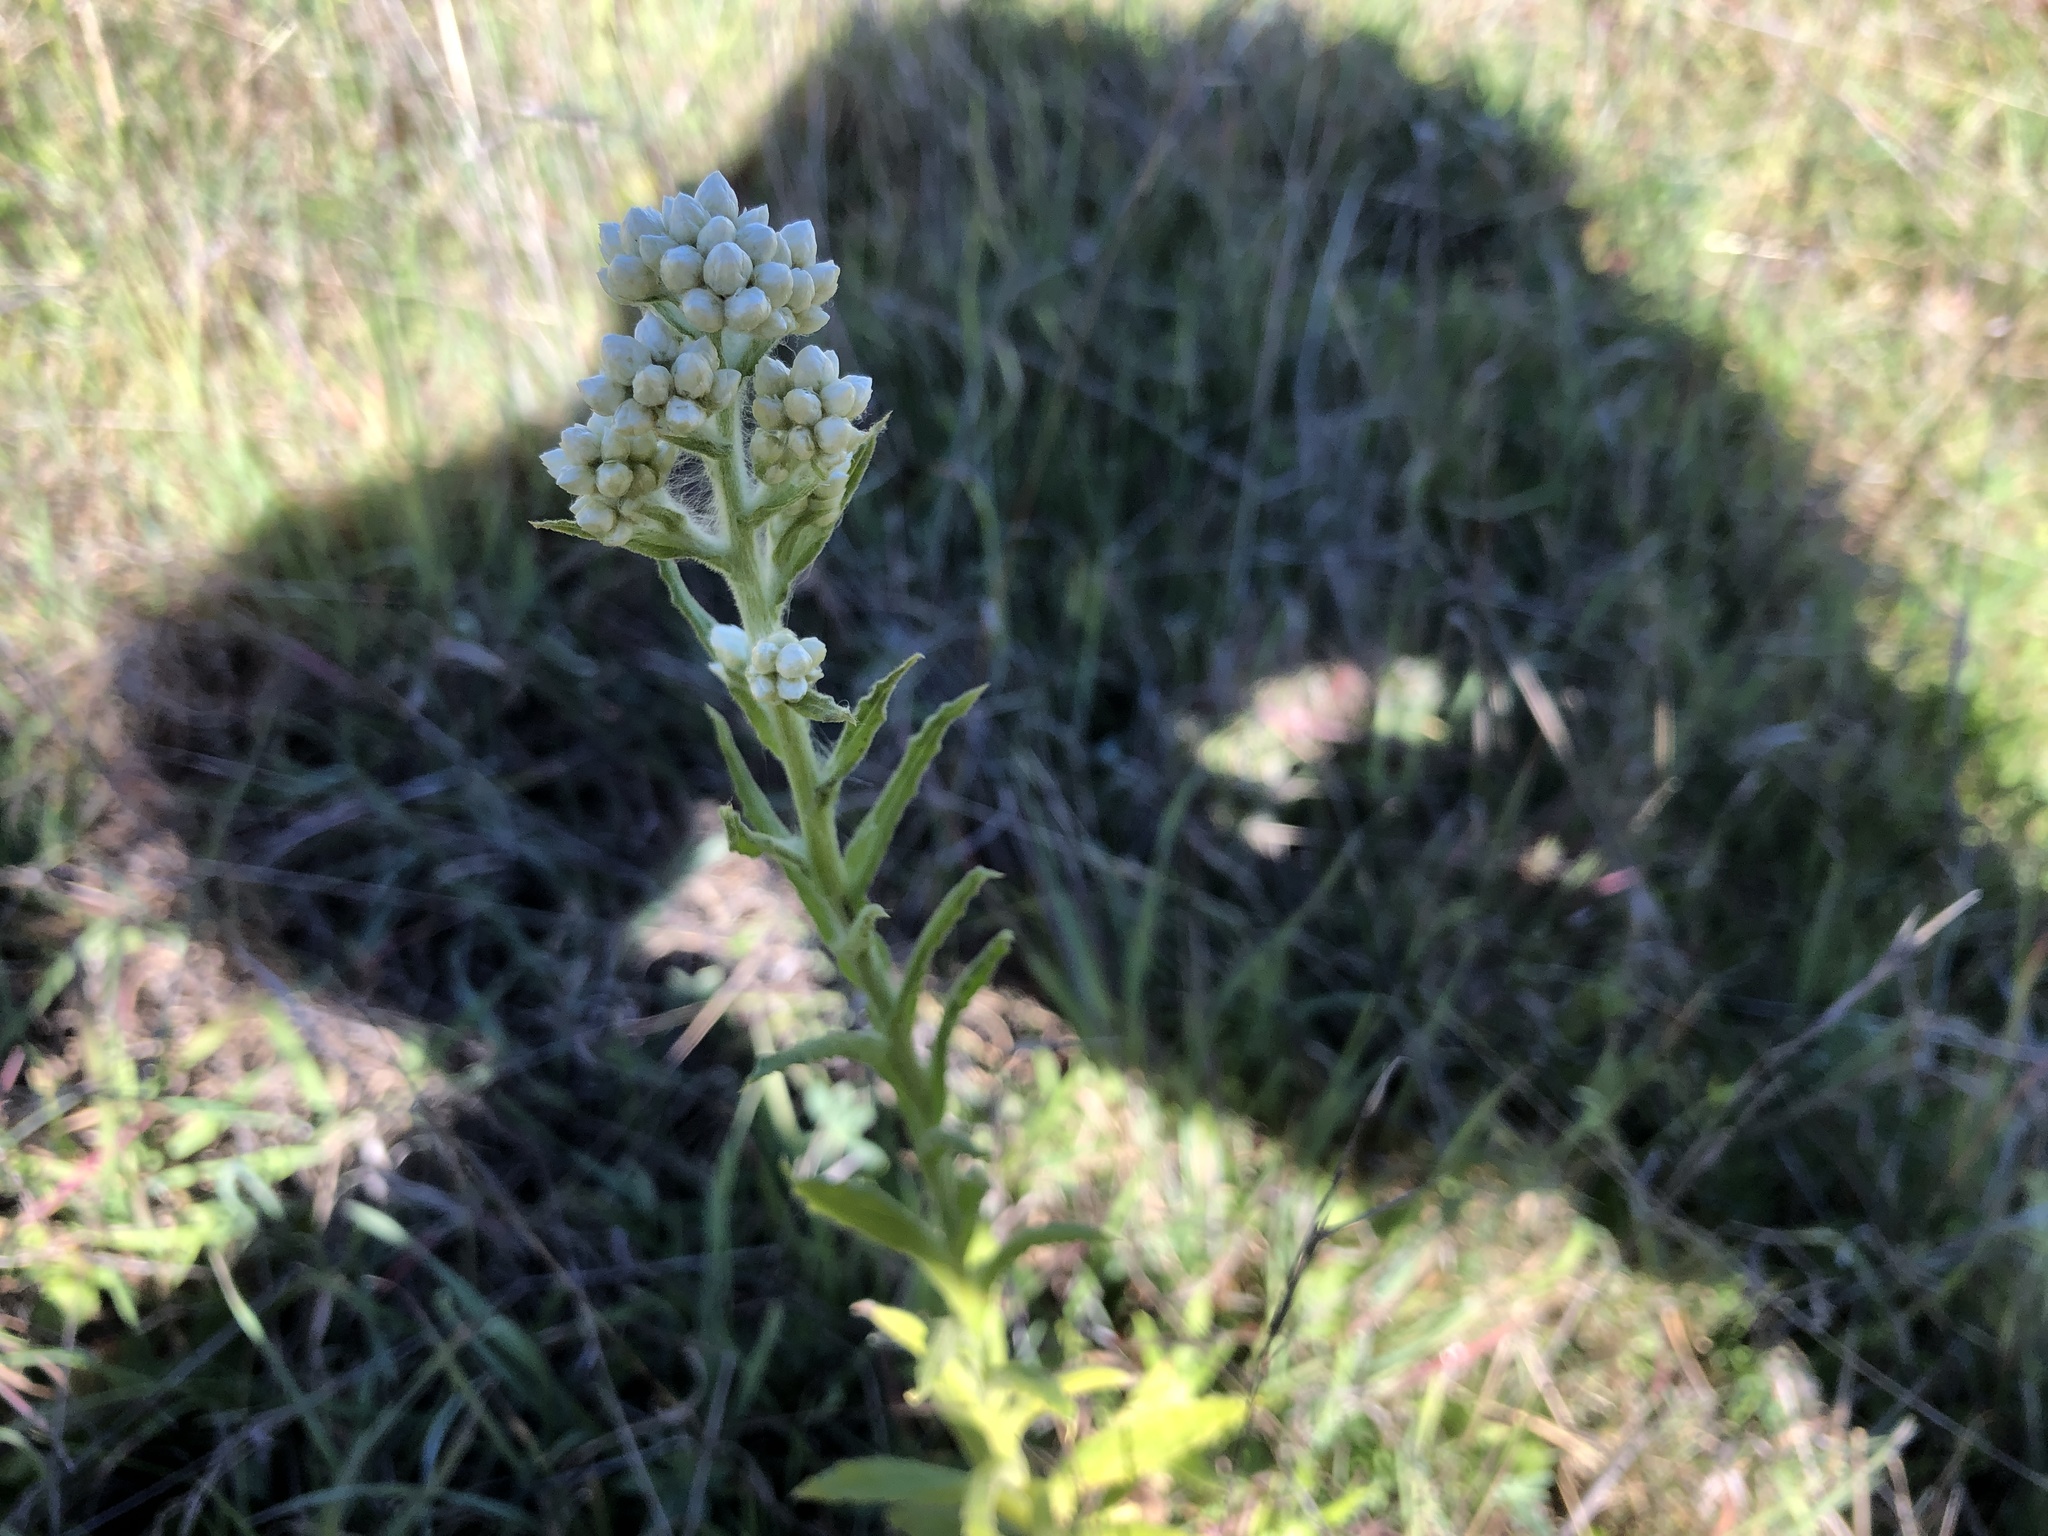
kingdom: Plantae
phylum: Tracheophyta
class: Magnoliopsida
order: Asterales
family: Asteraceae
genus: Pseudognaphalium
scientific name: Pseudognaphalium californicum
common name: California rabbit-tobacco
